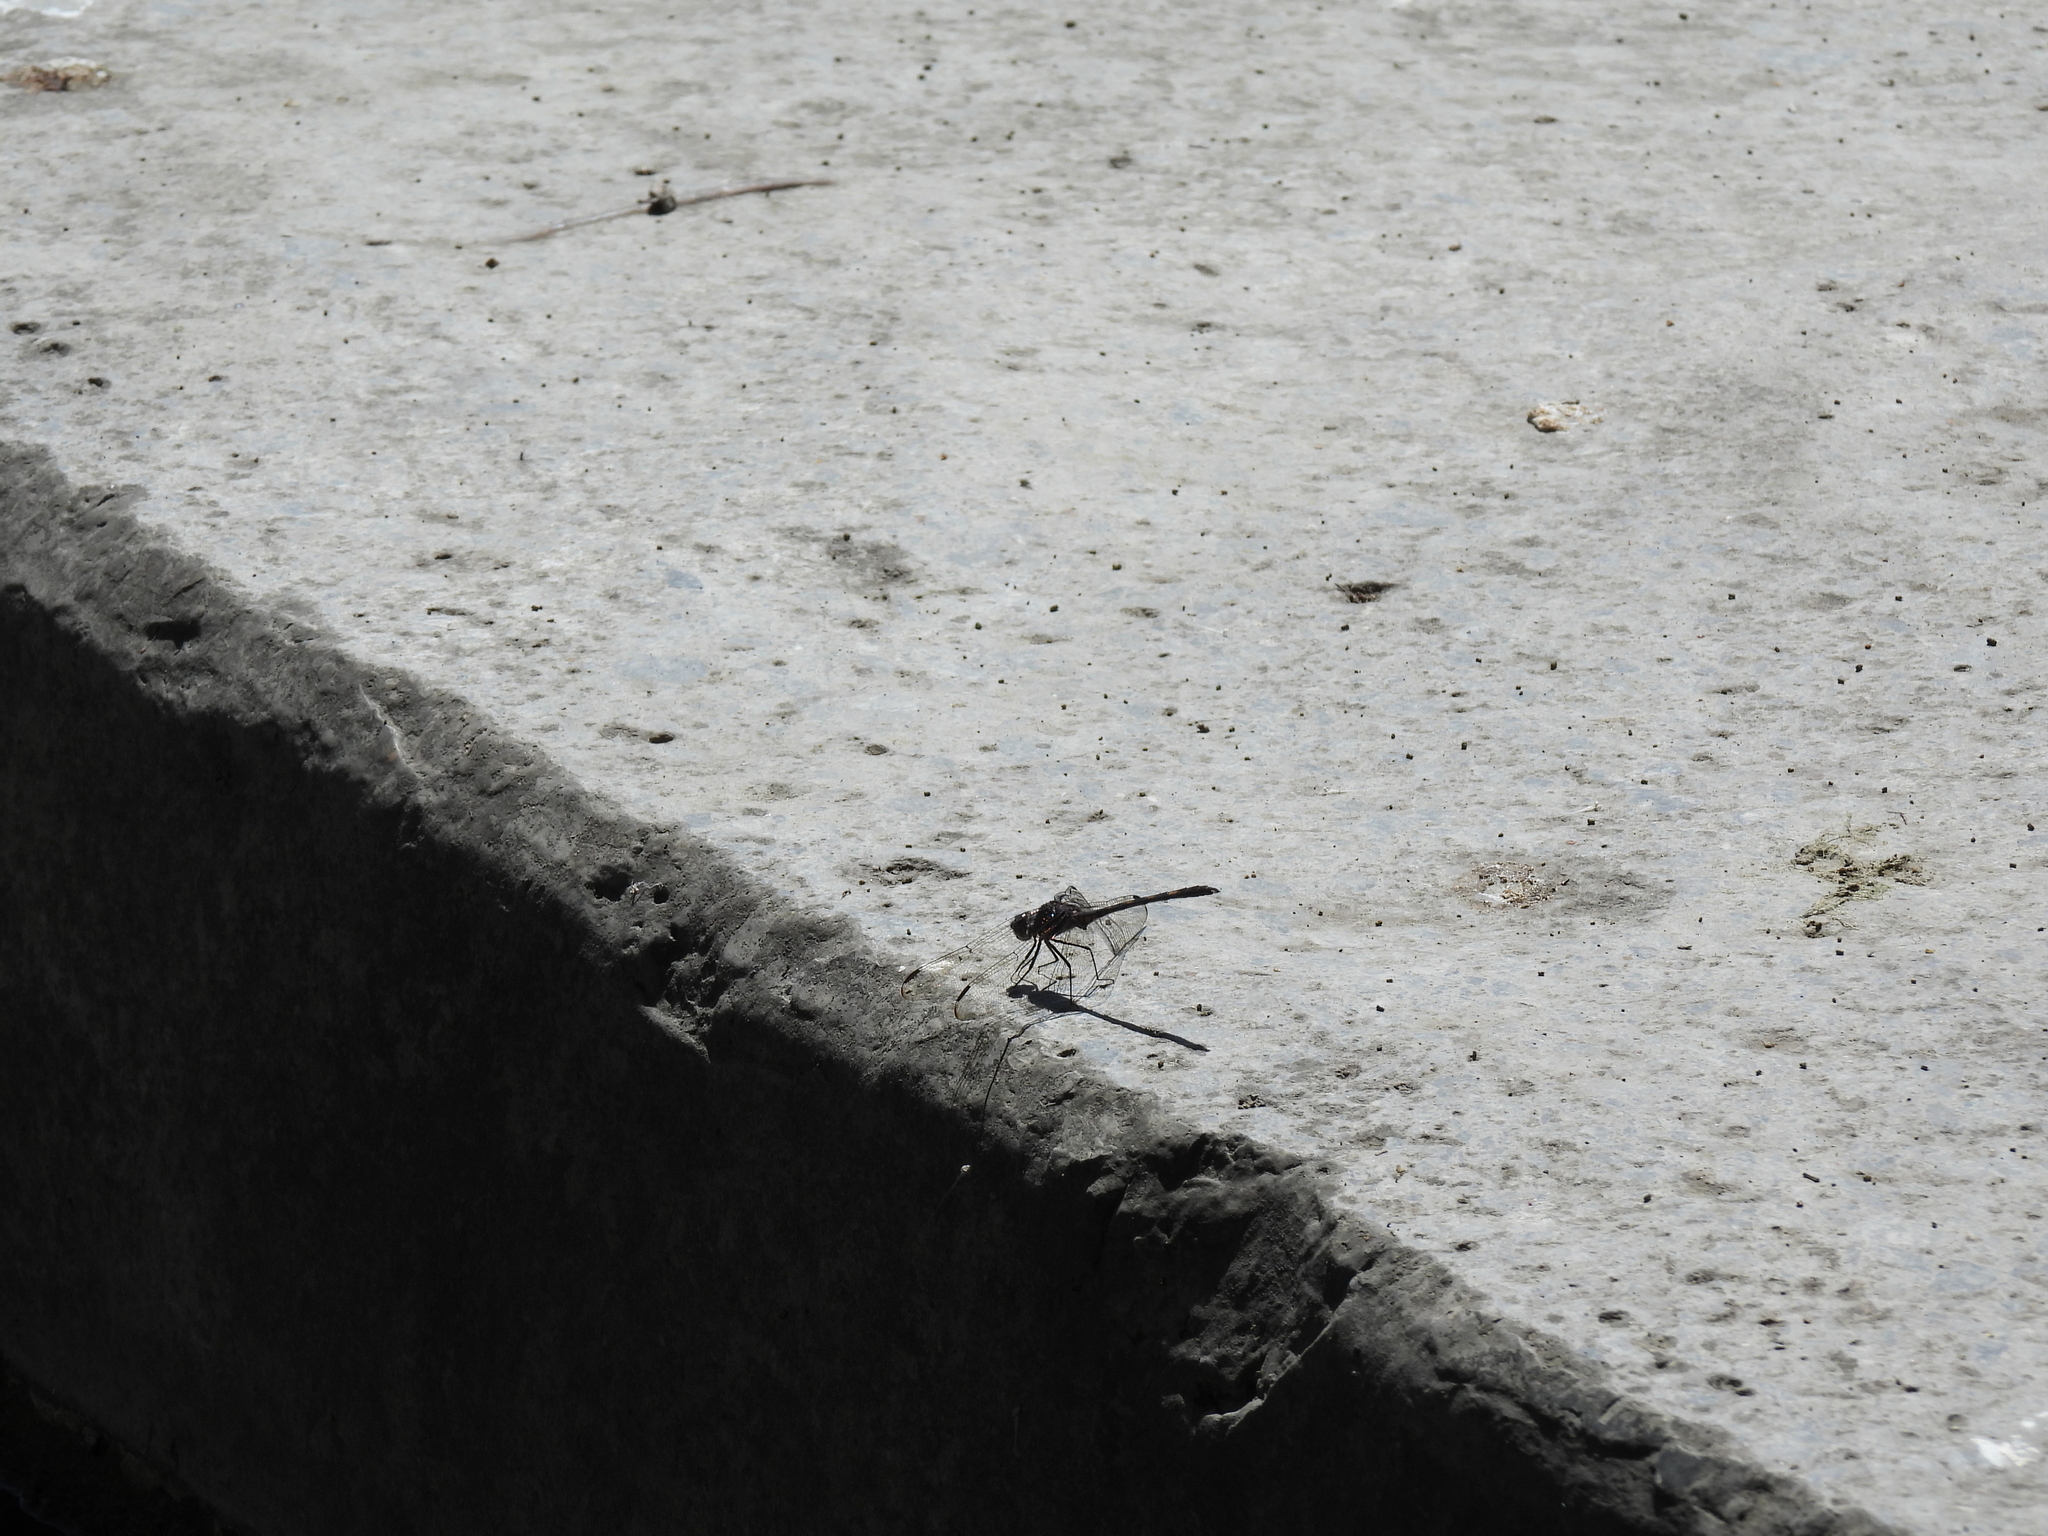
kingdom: Animalia
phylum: Arthropoda
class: Insecta
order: Odonata
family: Libellulidae
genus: Dythemis
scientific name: Dythemis nigrescens
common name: Black setwing
